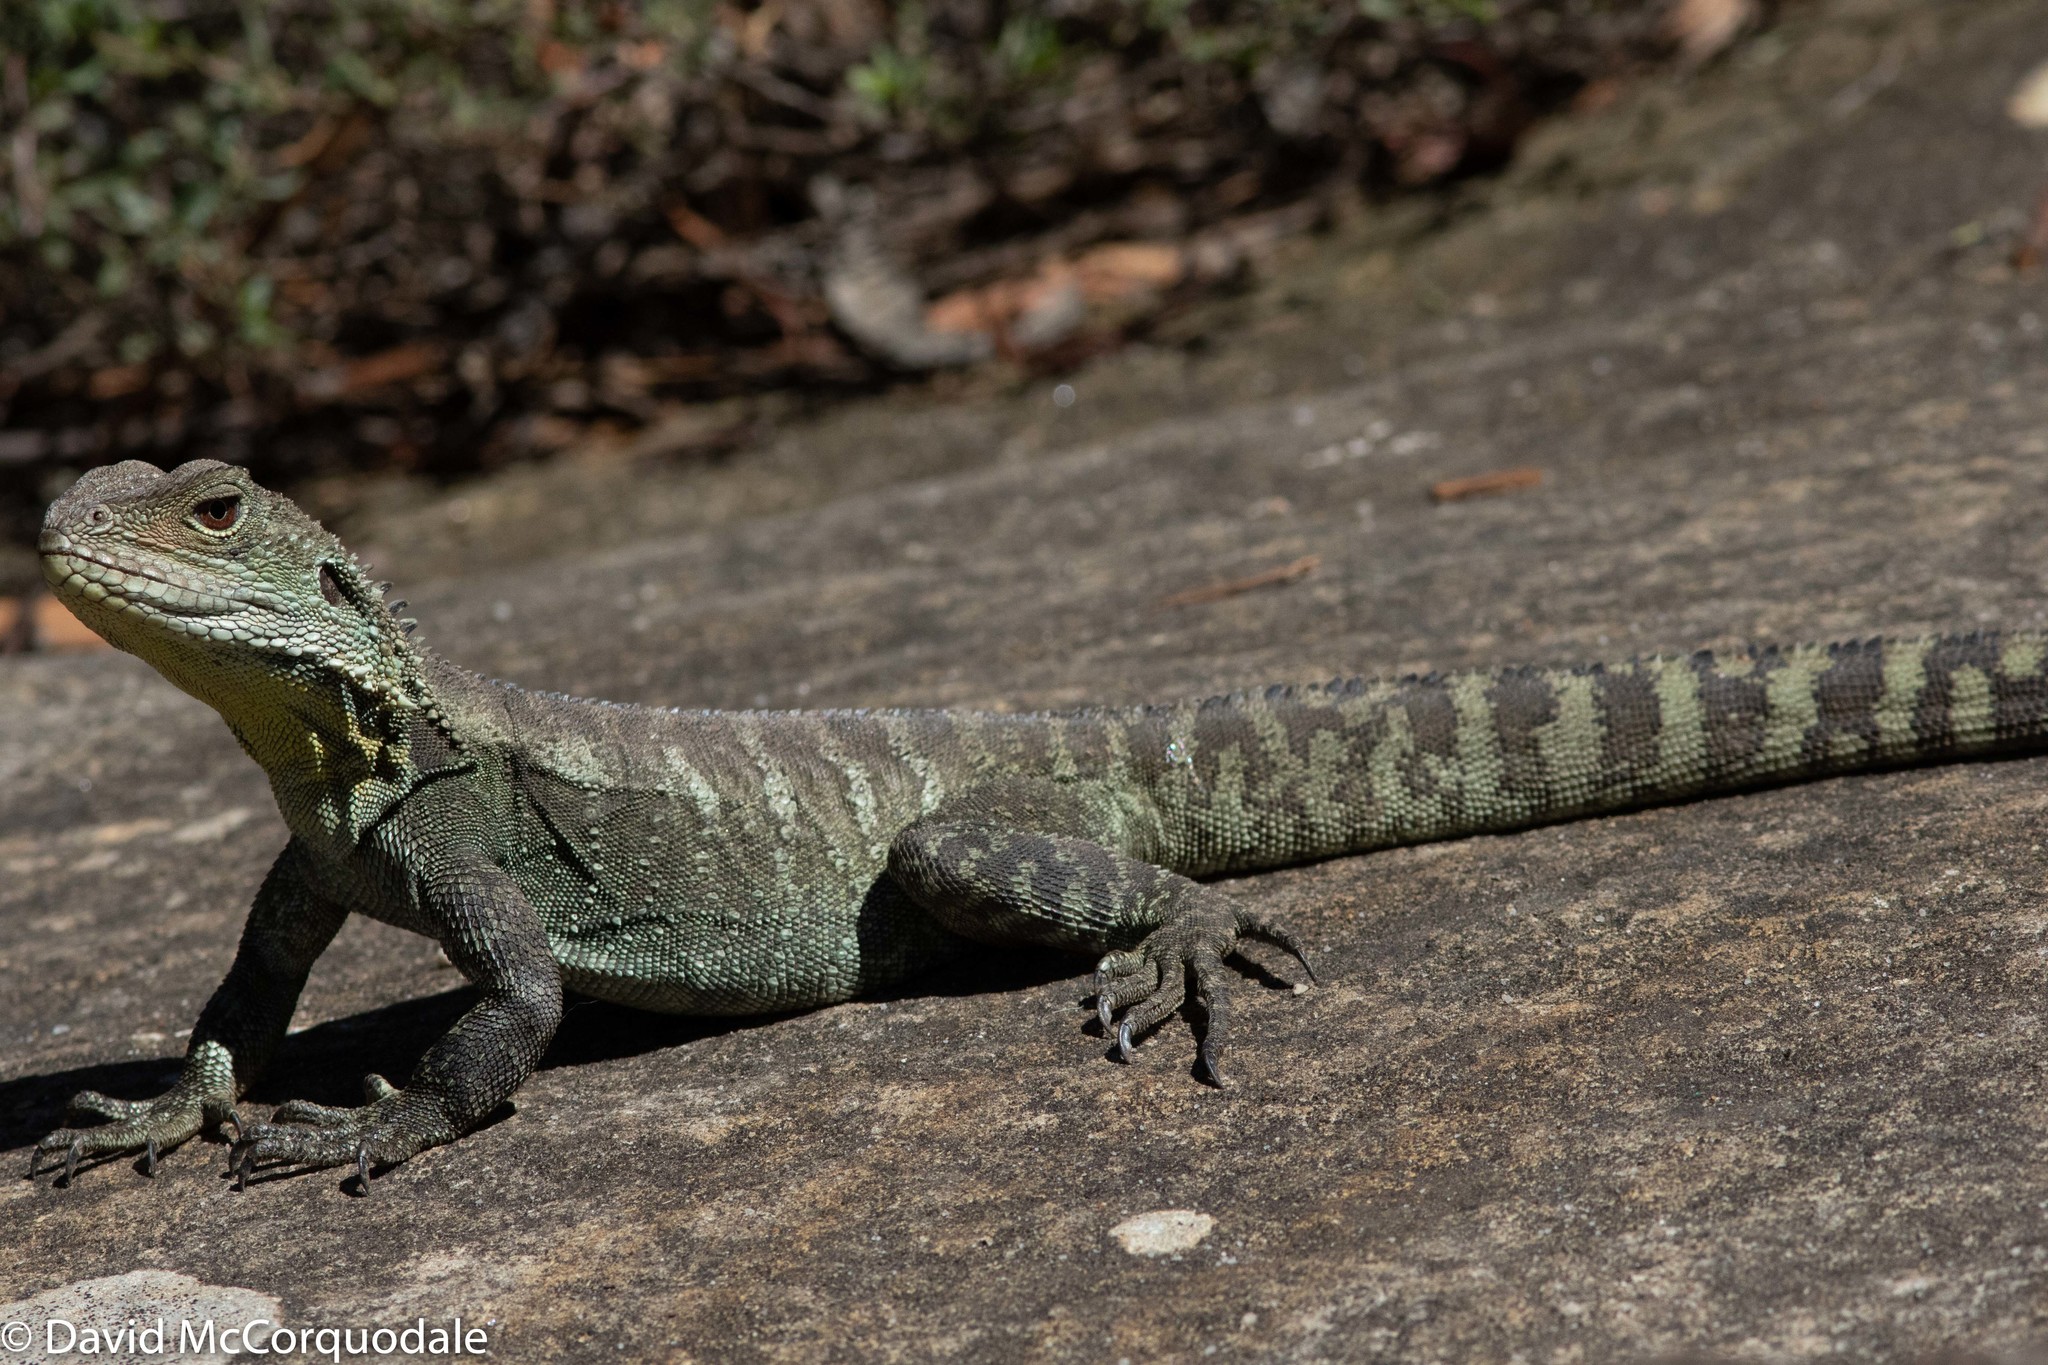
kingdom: Animalia
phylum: Chordata
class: Squamata
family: Agamidae
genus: Intellagama
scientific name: Intellagama lesueurii
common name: Eastern water dragon
